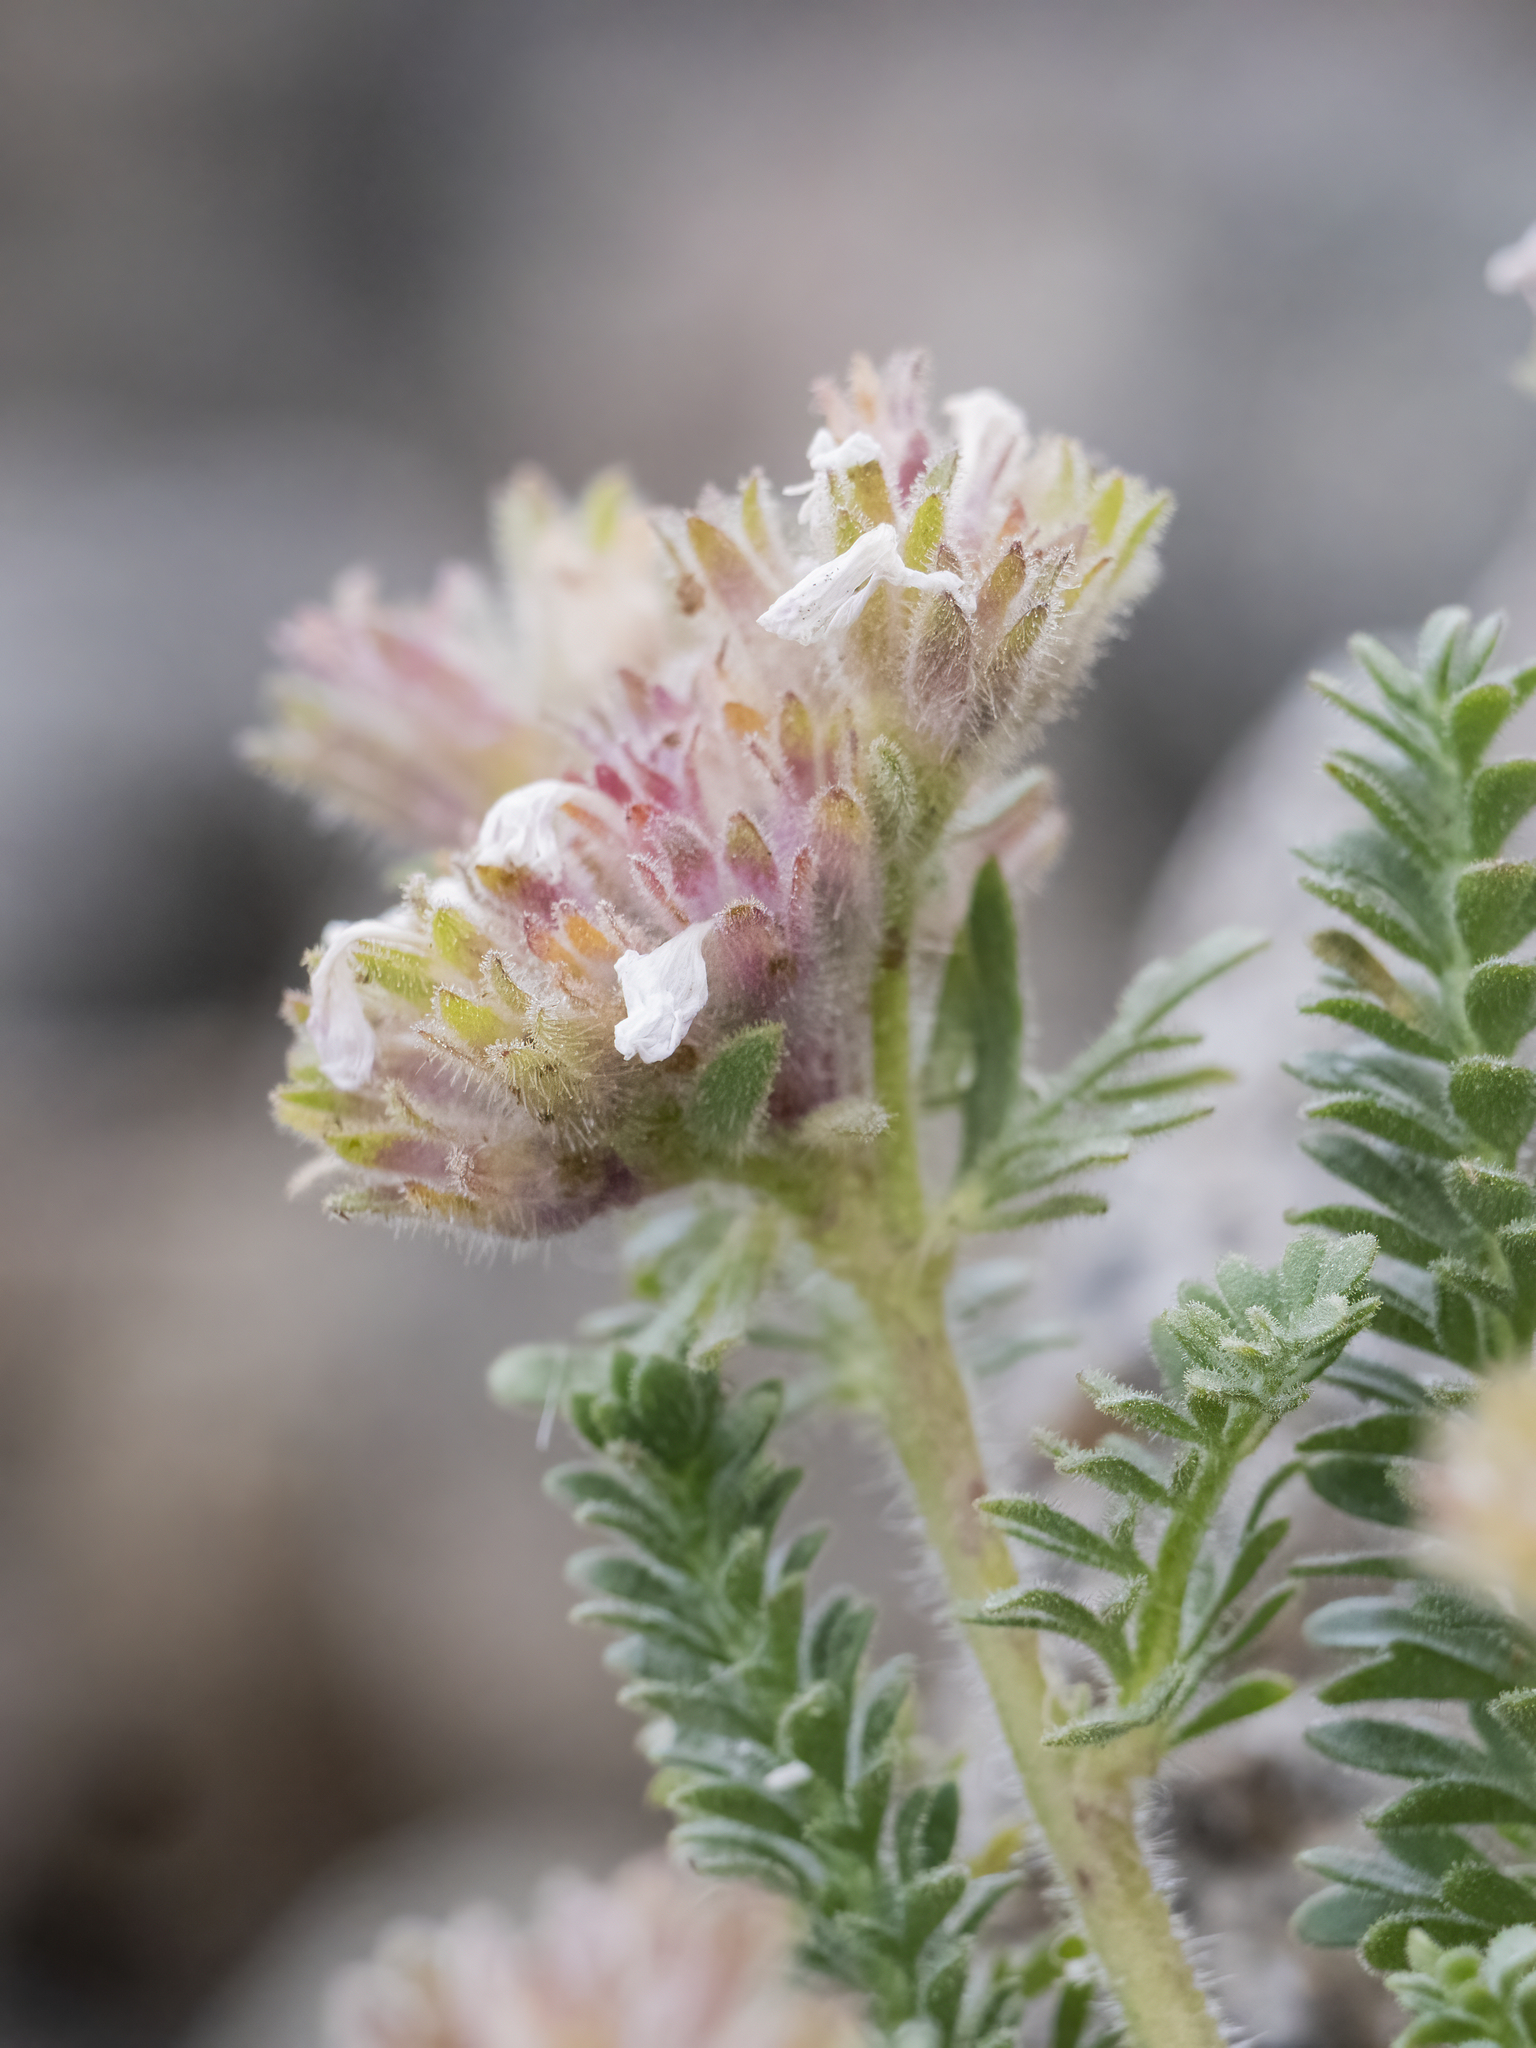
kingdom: Plantae
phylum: Tracheophyta
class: Magnoliopsida
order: Ericales
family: Polemoniaceae
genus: Polemonium
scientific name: Polemonium eximium
